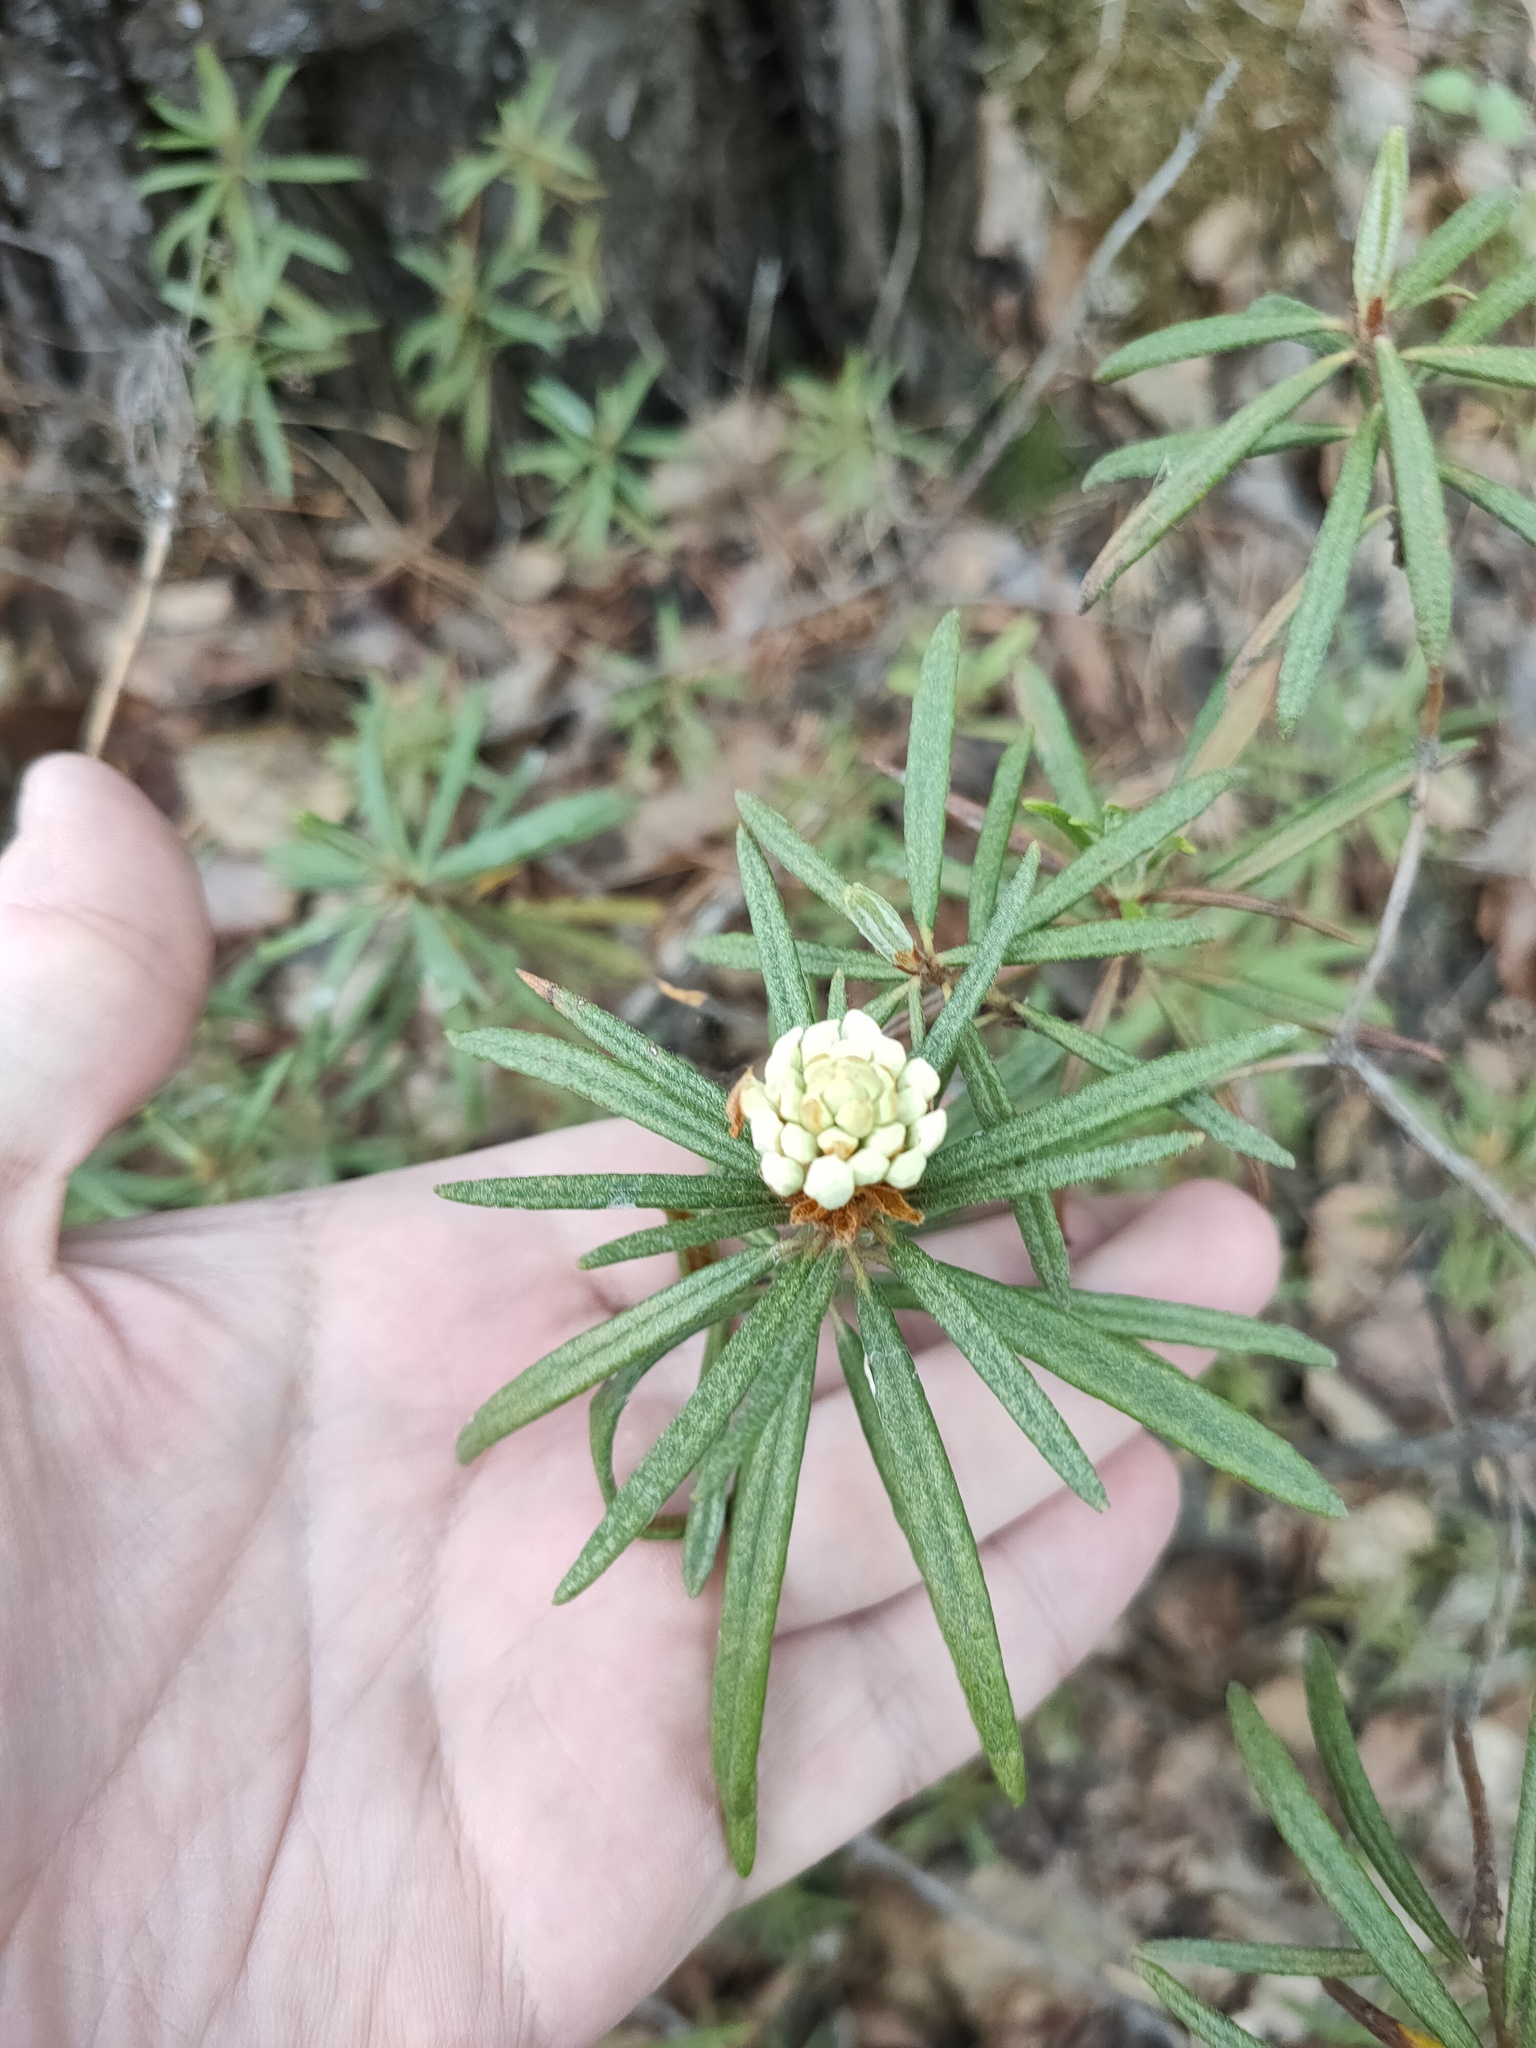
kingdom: Plantae
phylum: Tracheophyta
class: Magnoliopsida
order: Ericales
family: Ericaceae
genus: Rhododendron
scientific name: Rhododendron tomentosum
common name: Marsh labrador tea
